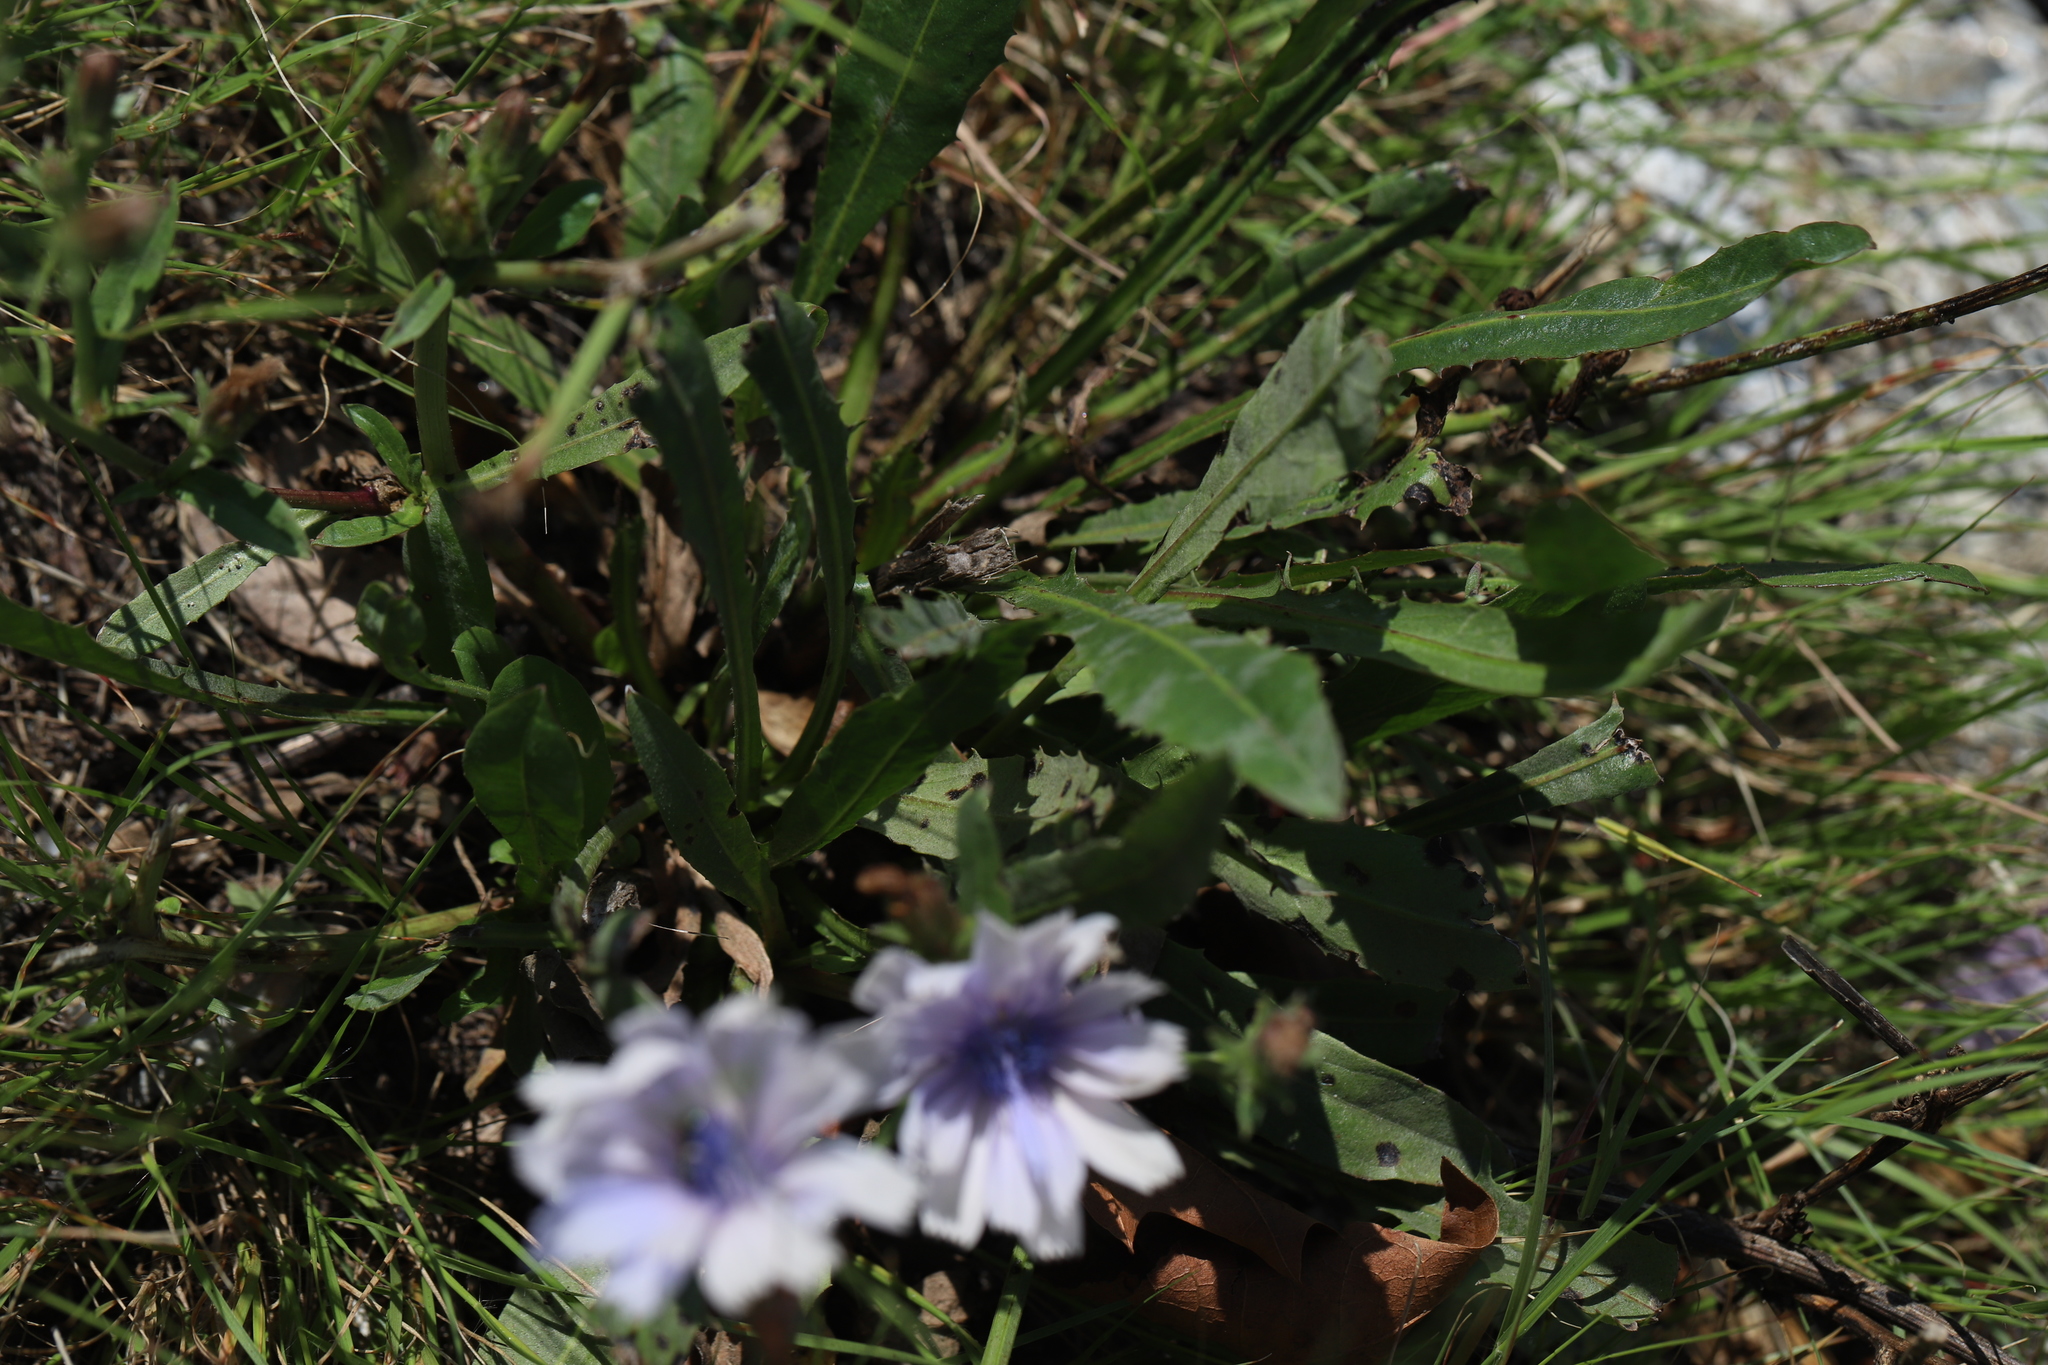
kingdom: Plantae
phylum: Tracheophyta
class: Magnoliopsida
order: Asterales
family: Asteraceae
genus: Cichorium
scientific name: Cichorium intybus
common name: Chicory
